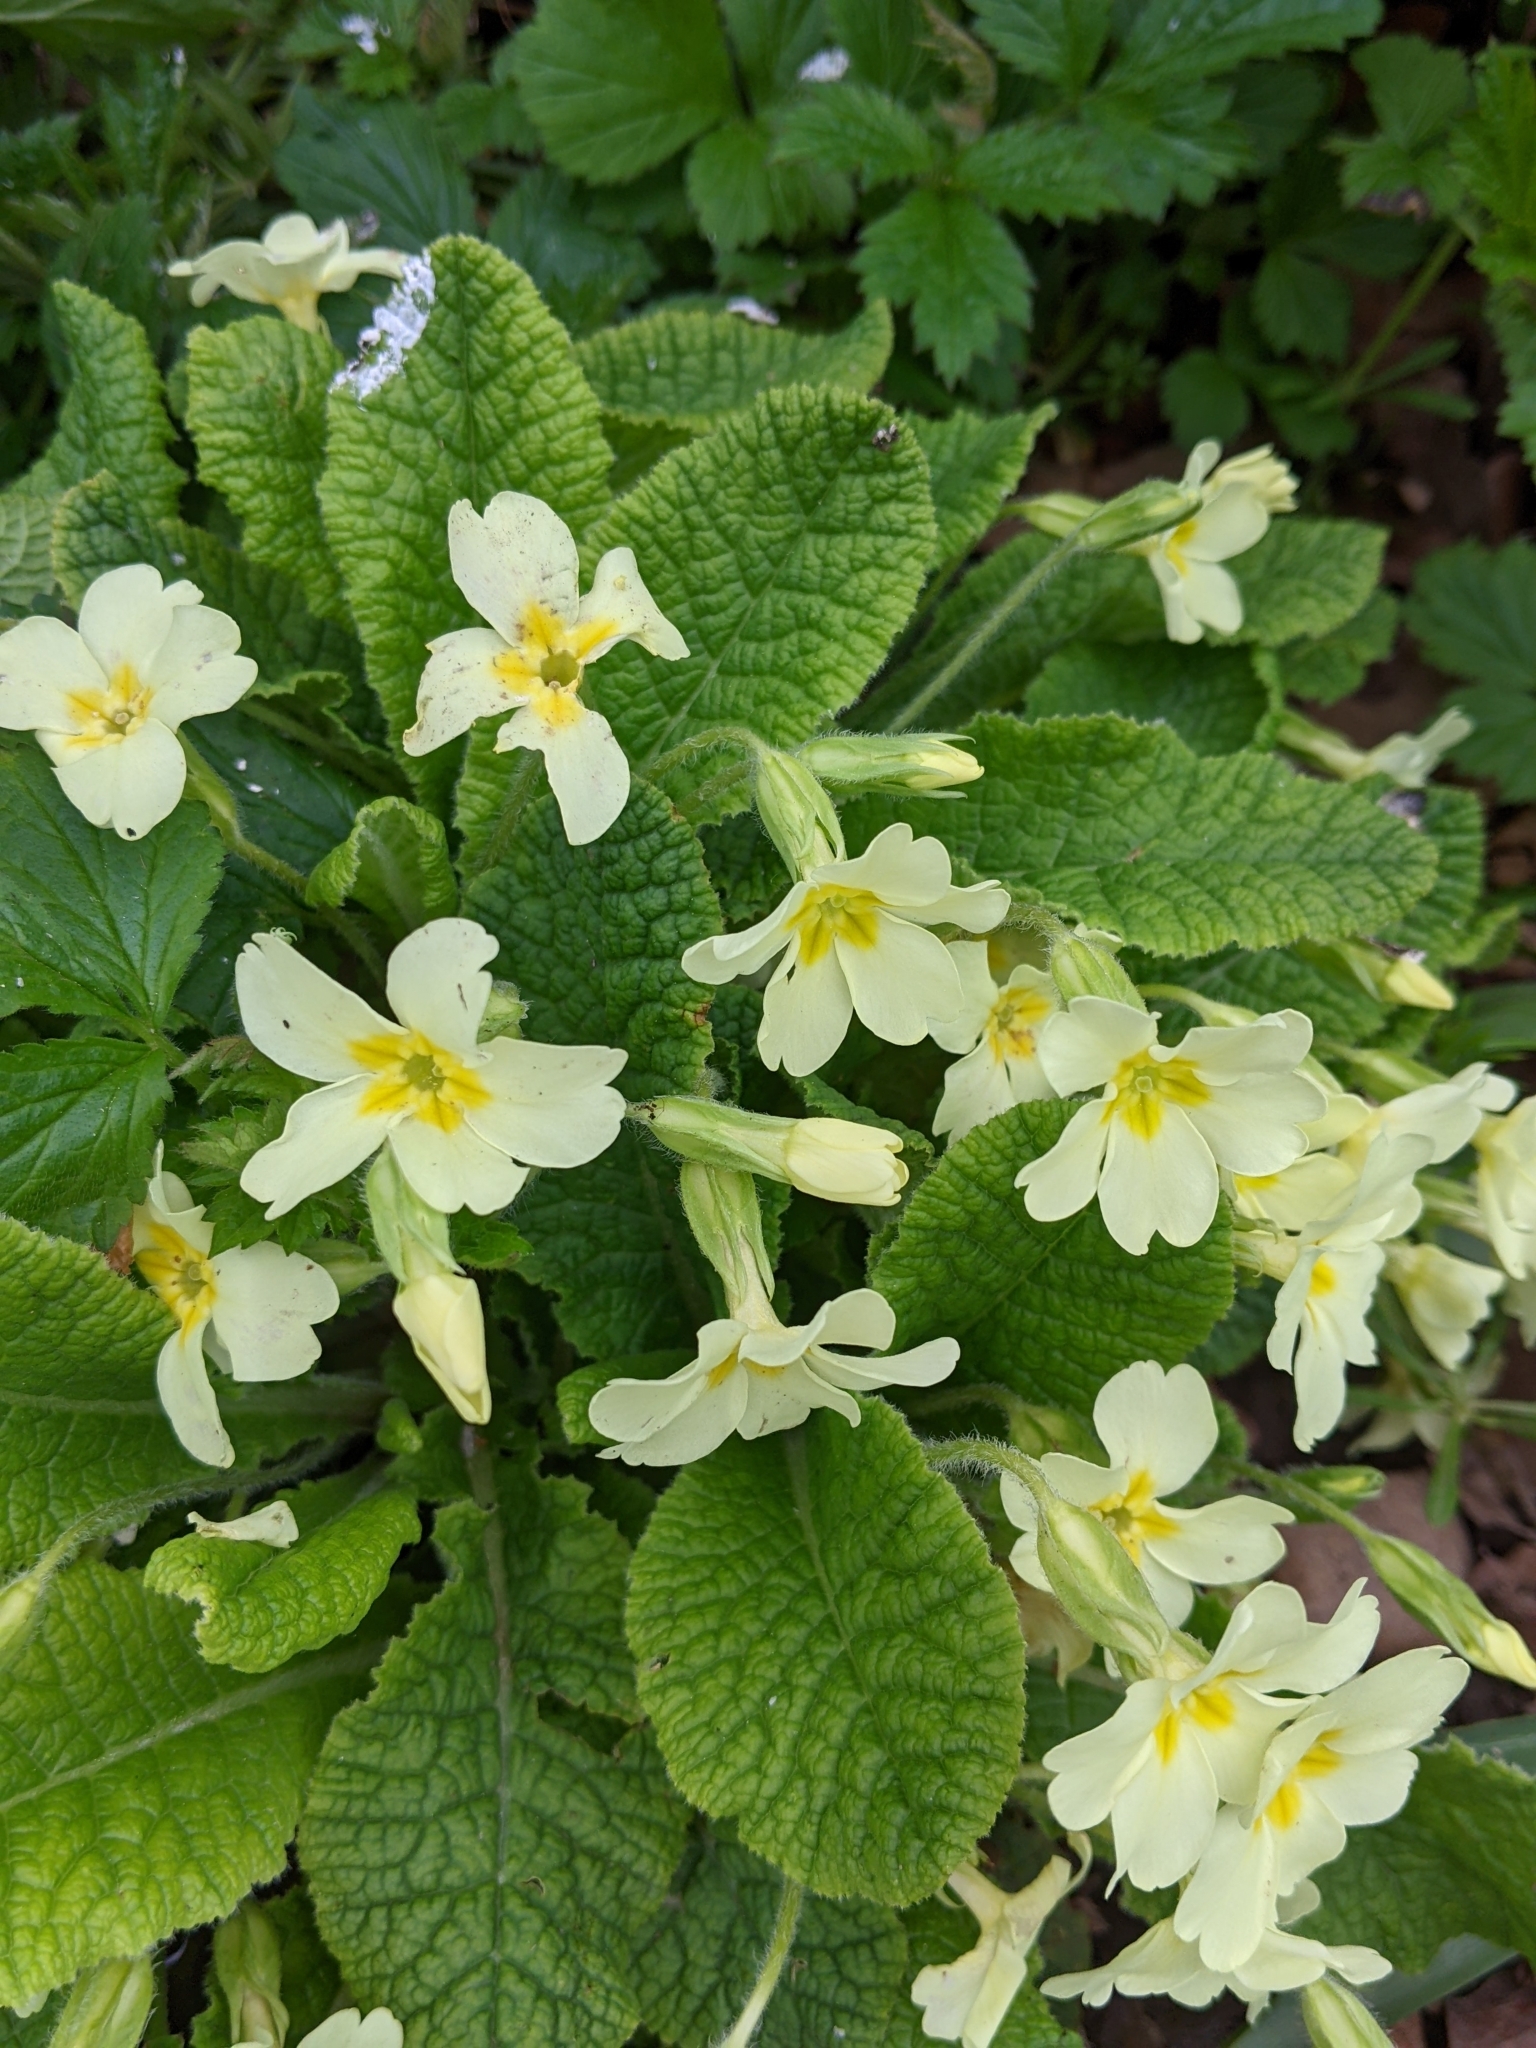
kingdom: Plantae
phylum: Tracheophyta
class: Magnoliopsida
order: Ericales
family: Primulaceae
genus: Primula
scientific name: Primula vulgaris
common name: Primrose
